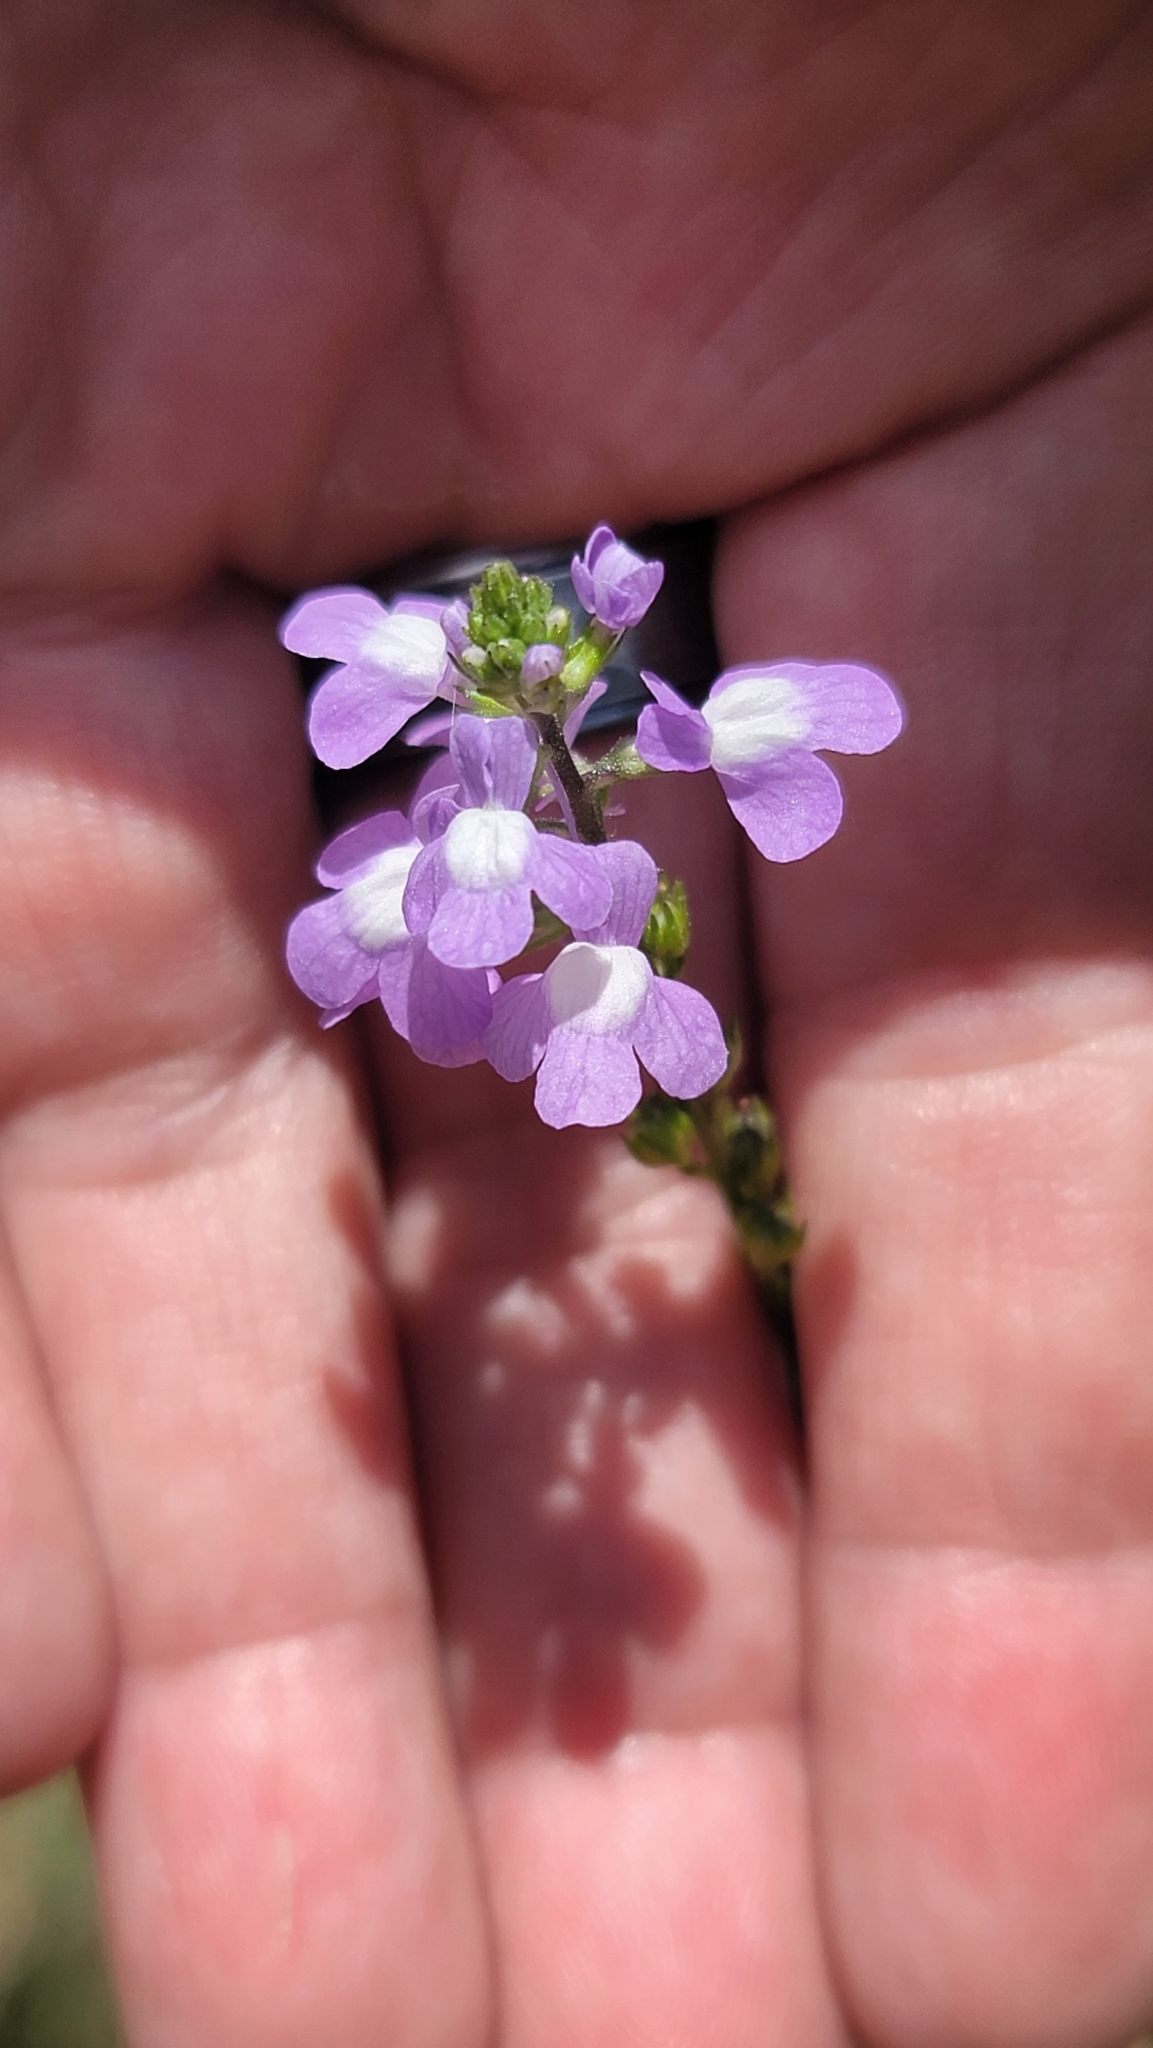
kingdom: Plantae
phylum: Tracheophyta
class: Magnoliopsida
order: Lamiales
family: Plantaginaceae
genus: Nuttallanthus
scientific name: Nuttallanthus canadensis
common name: Blue toadflax
